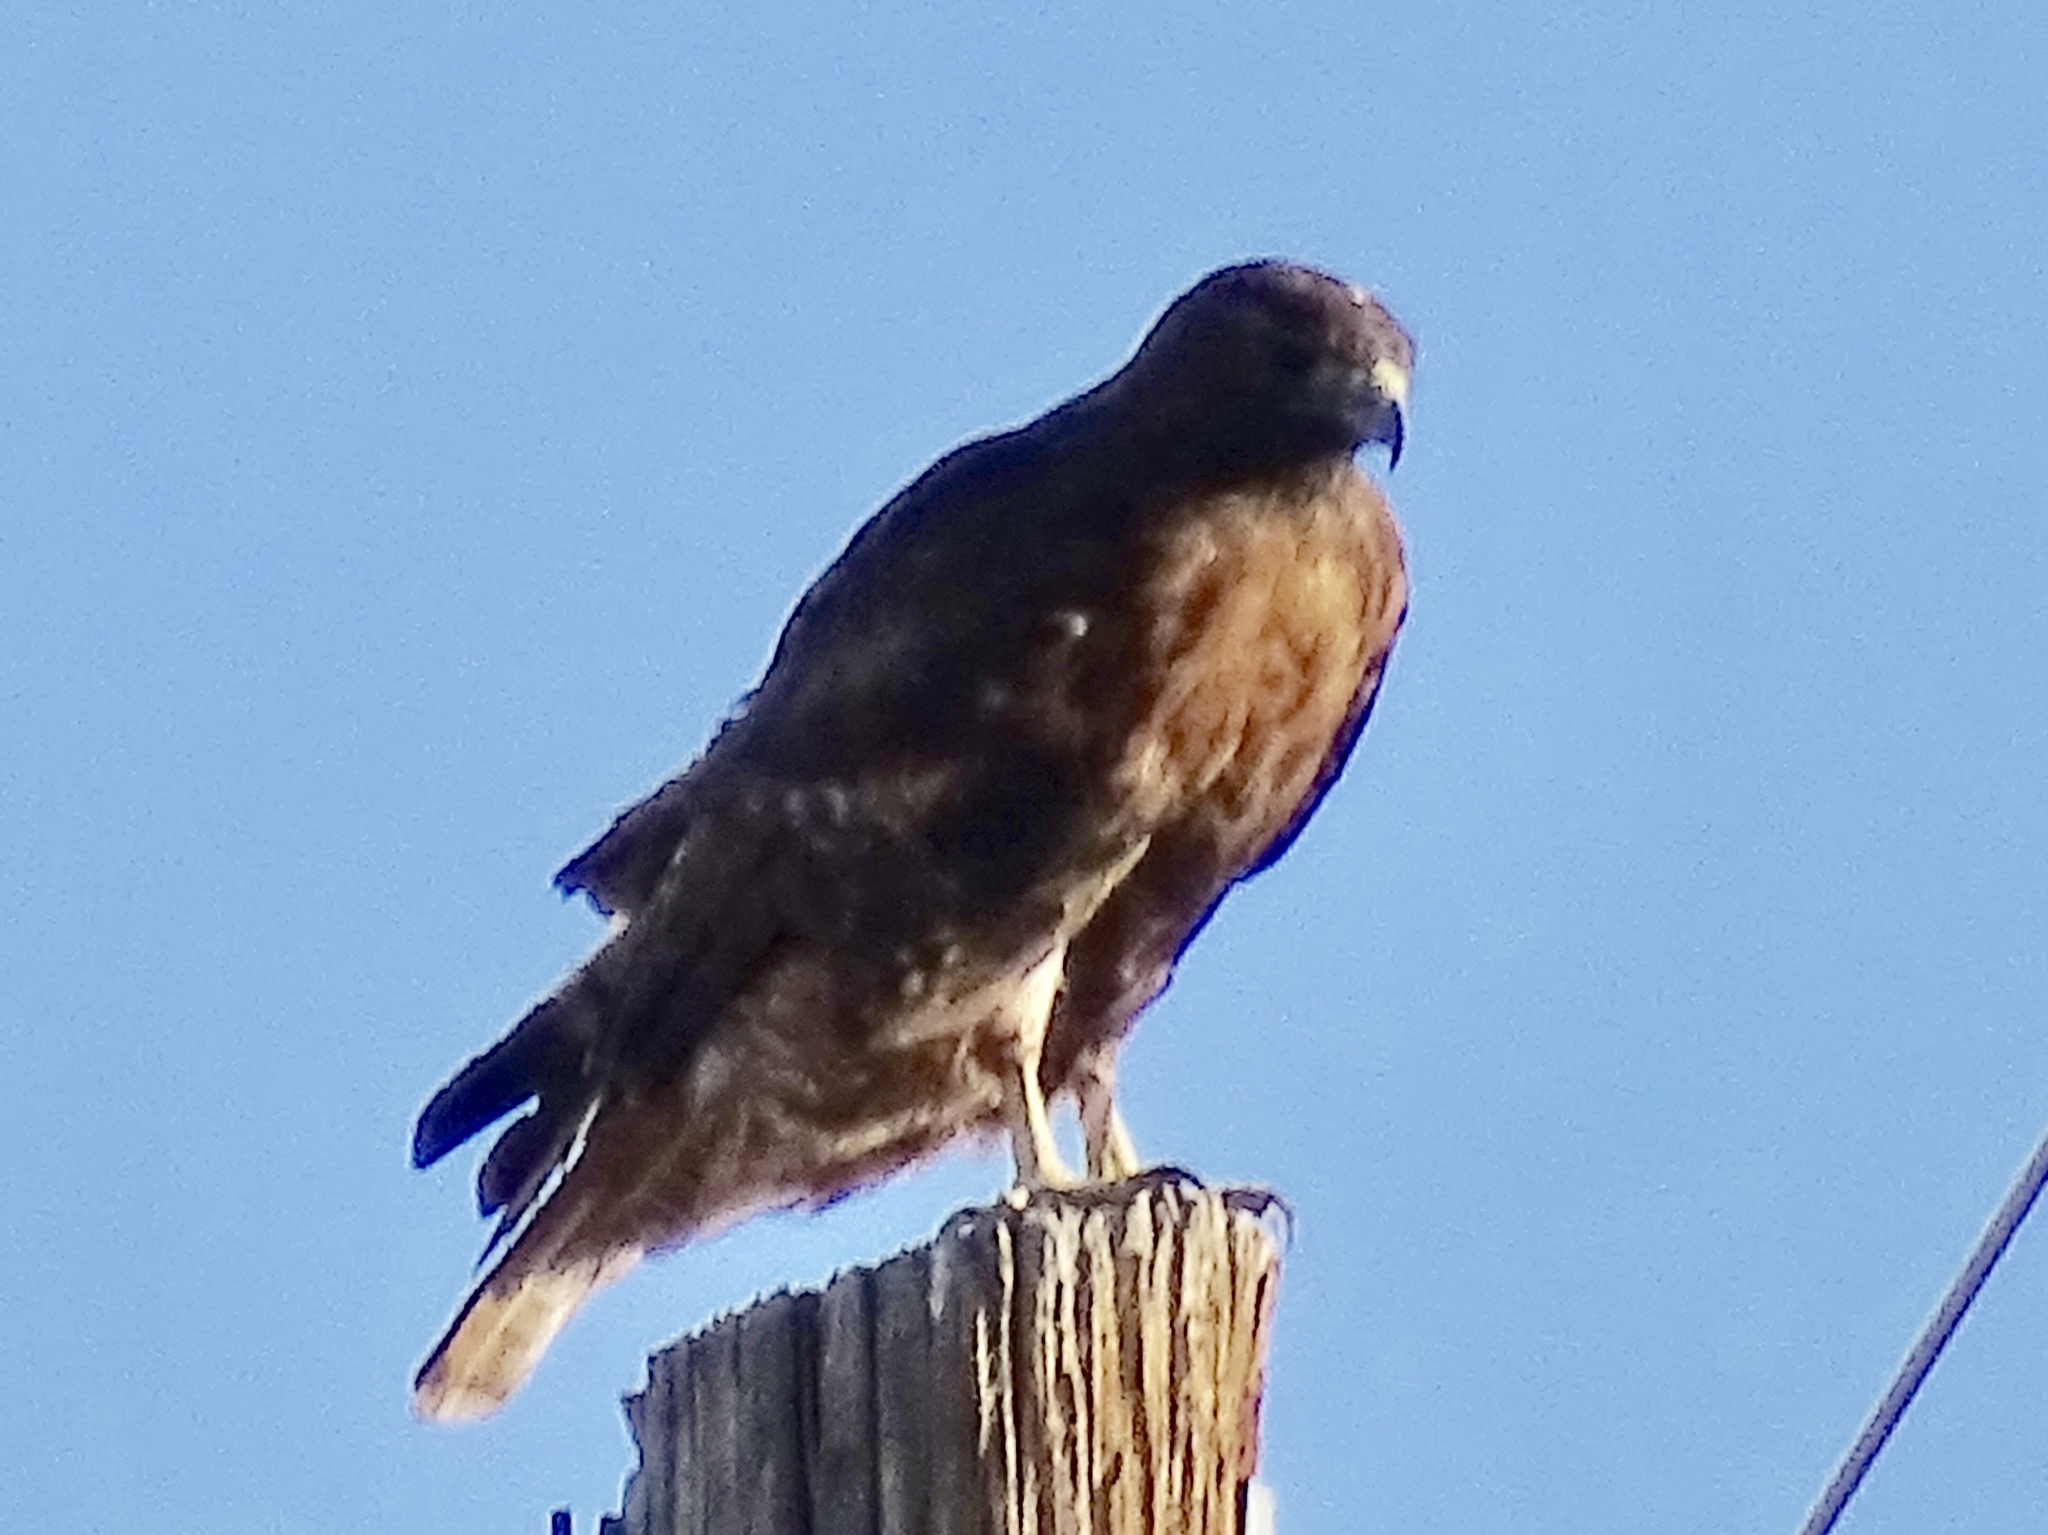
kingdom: Animalia
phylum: Chordata
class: Aves
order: Accipitriformes
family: Accipitridae
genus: Buteo
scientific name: Buteo jamaicensis
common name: Red-tailed hawk
